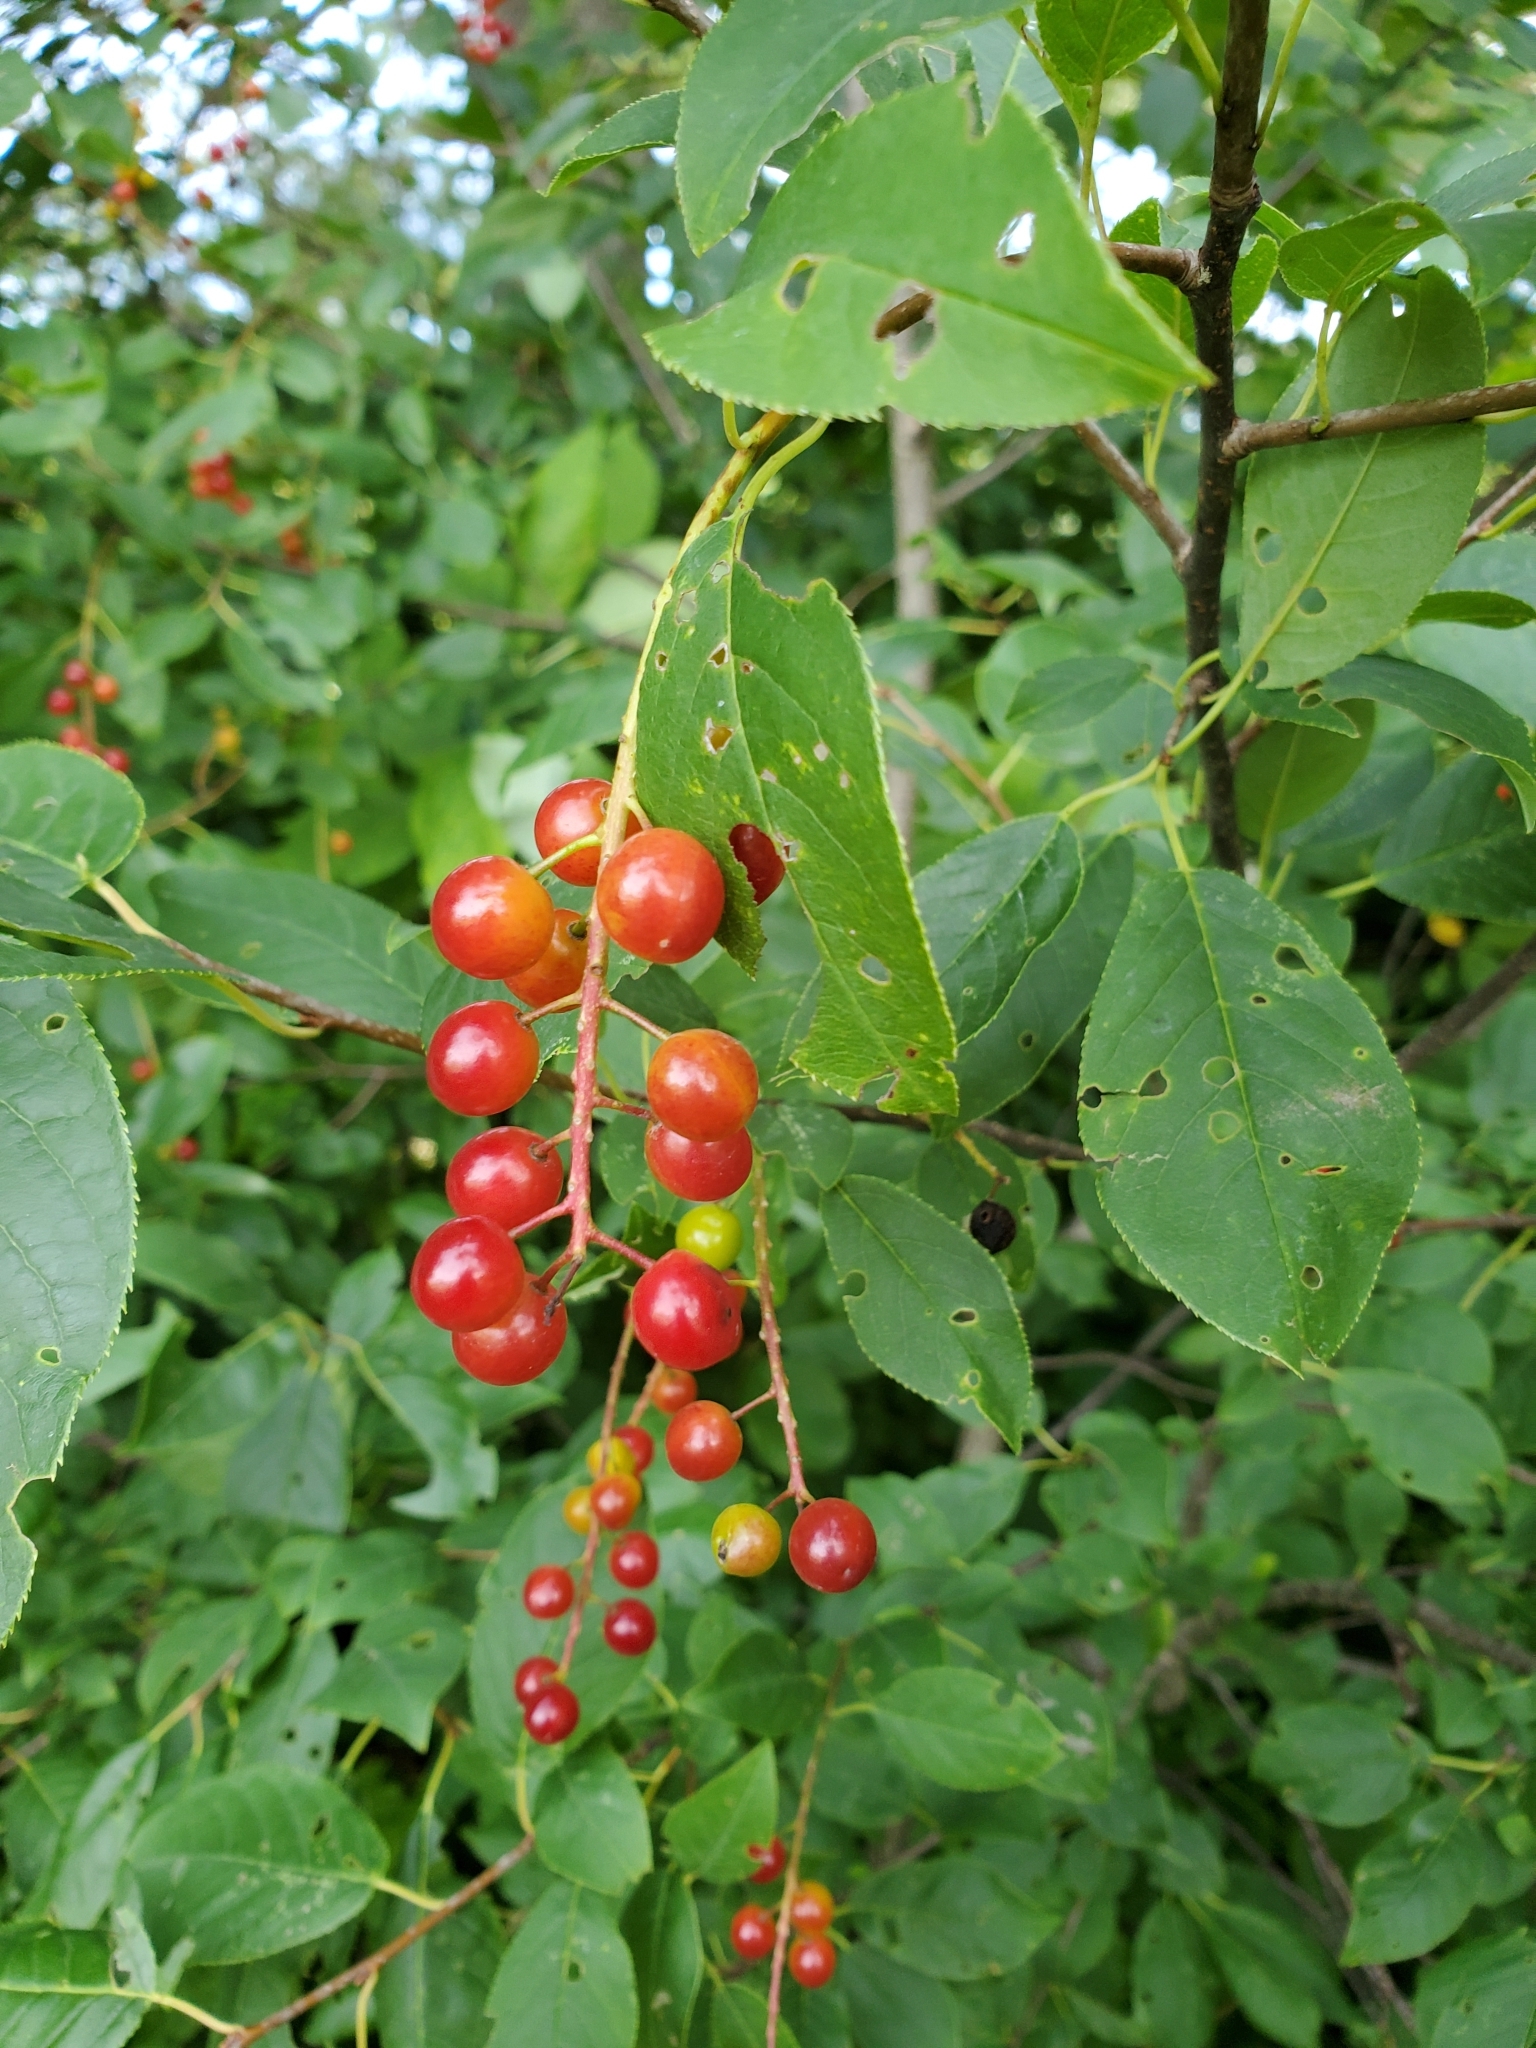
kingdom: Plantae
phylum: Tracheophyta
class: Magnoliopsida
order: Rosales
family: Rosaceae
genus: Prunus
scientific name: Prunus virginiana
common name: Chokecherry
